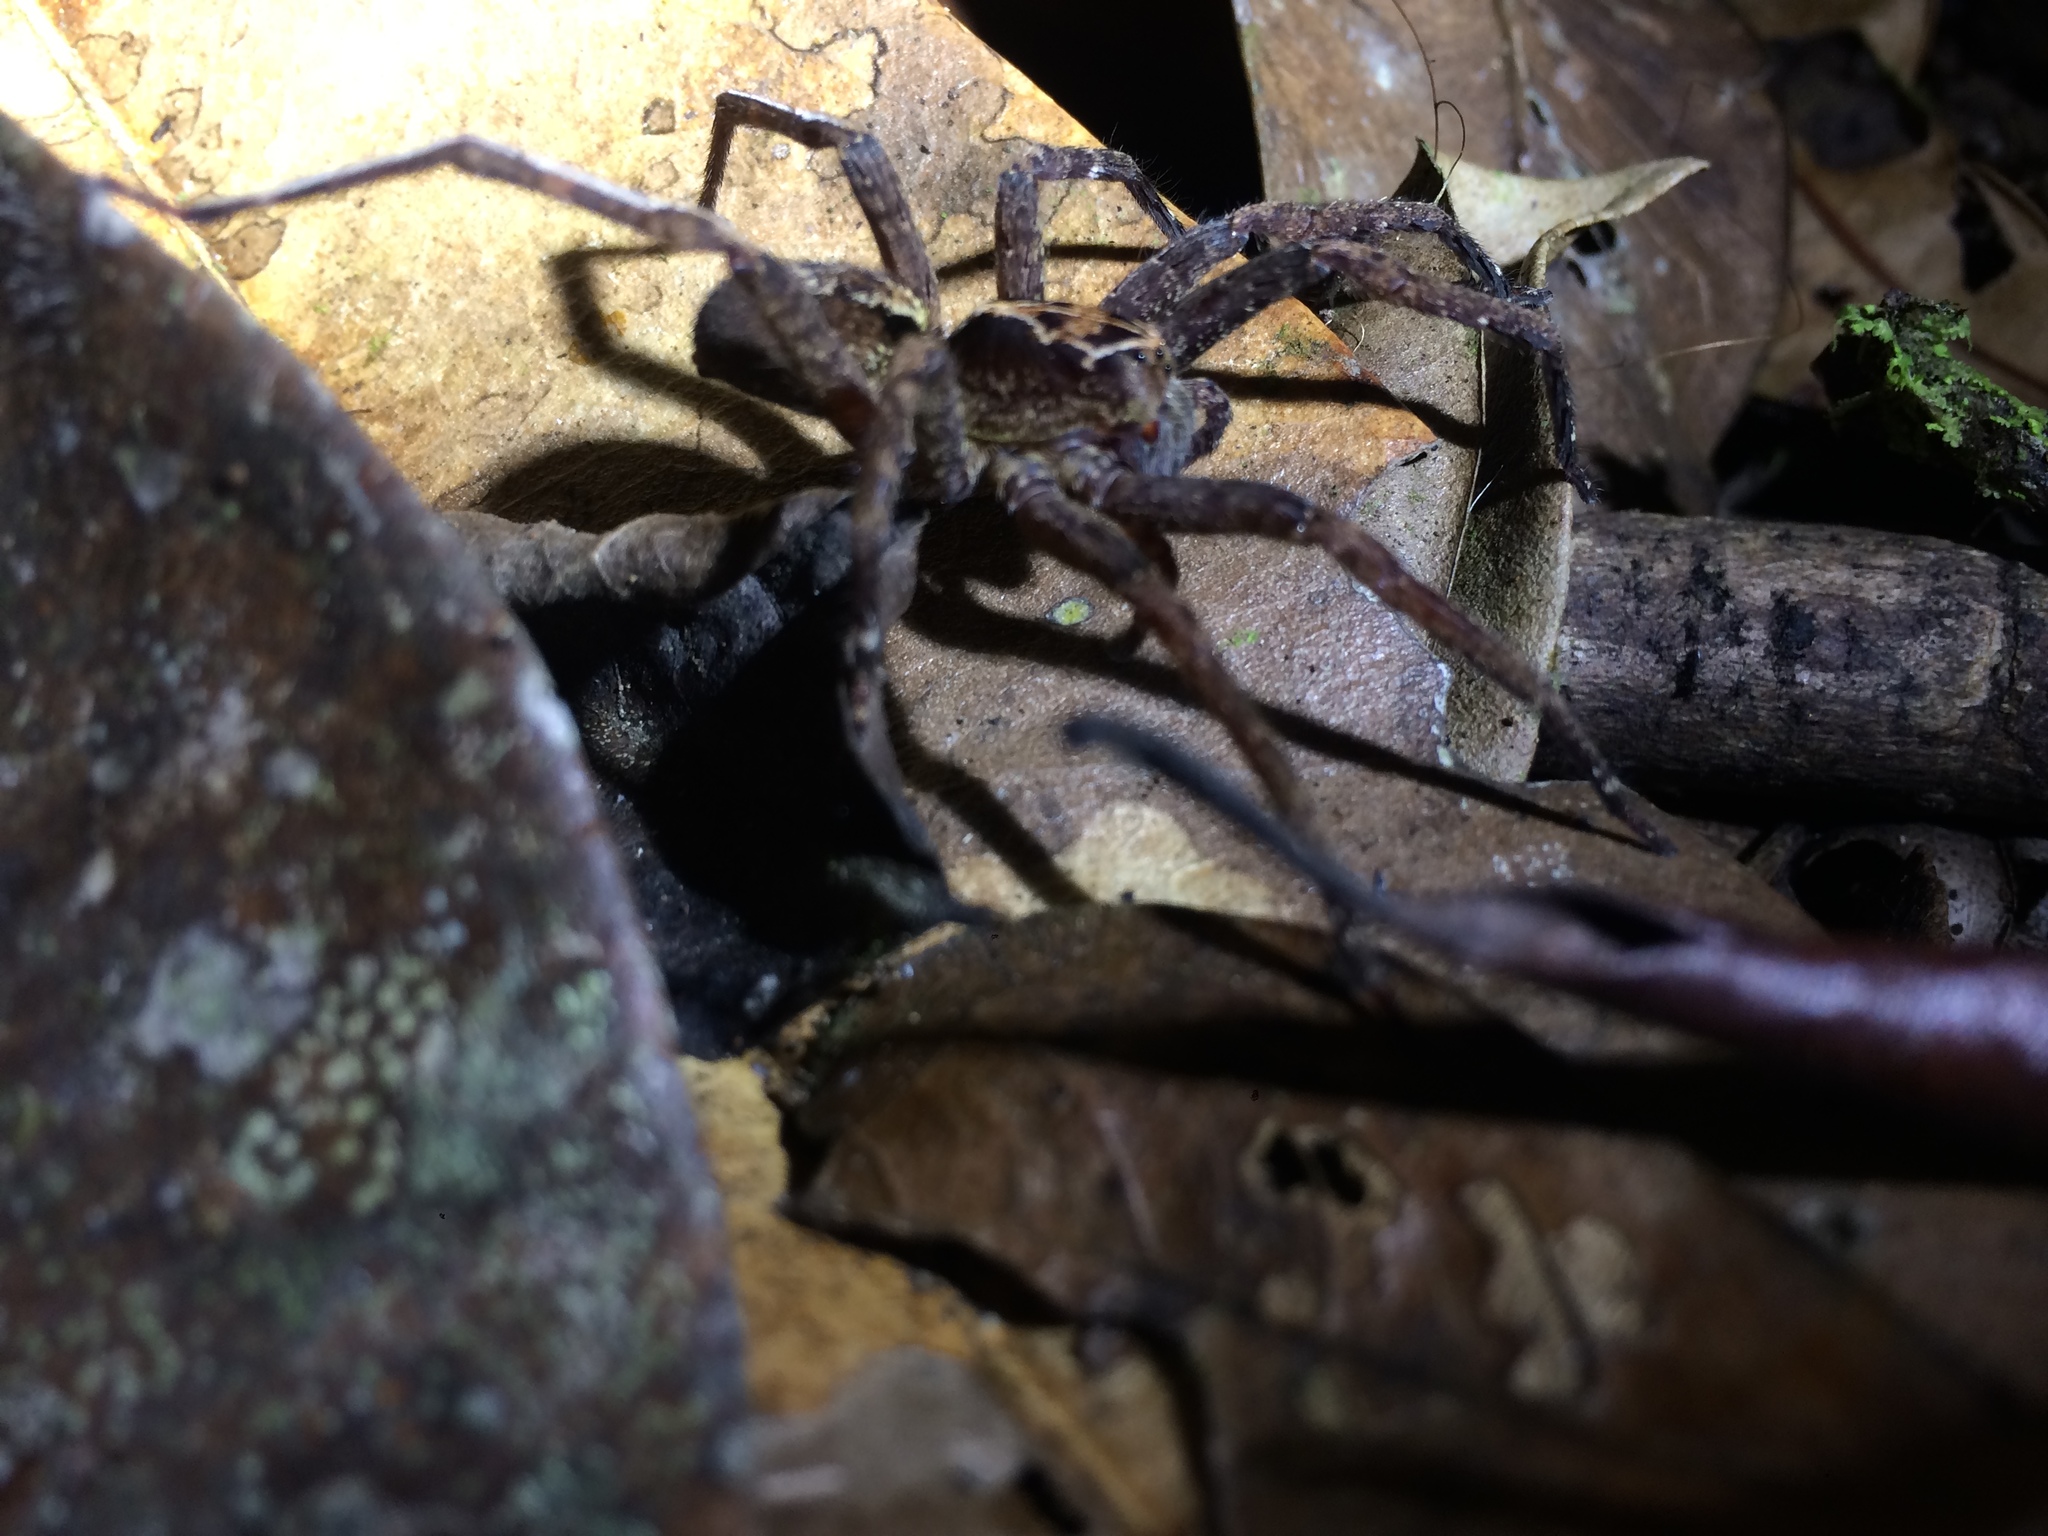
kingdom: Animalia
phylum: Arthropoda
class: Arachnida
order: Araneae
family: Ctenidae
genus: Ctenus
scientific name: Ctenus ornatus
